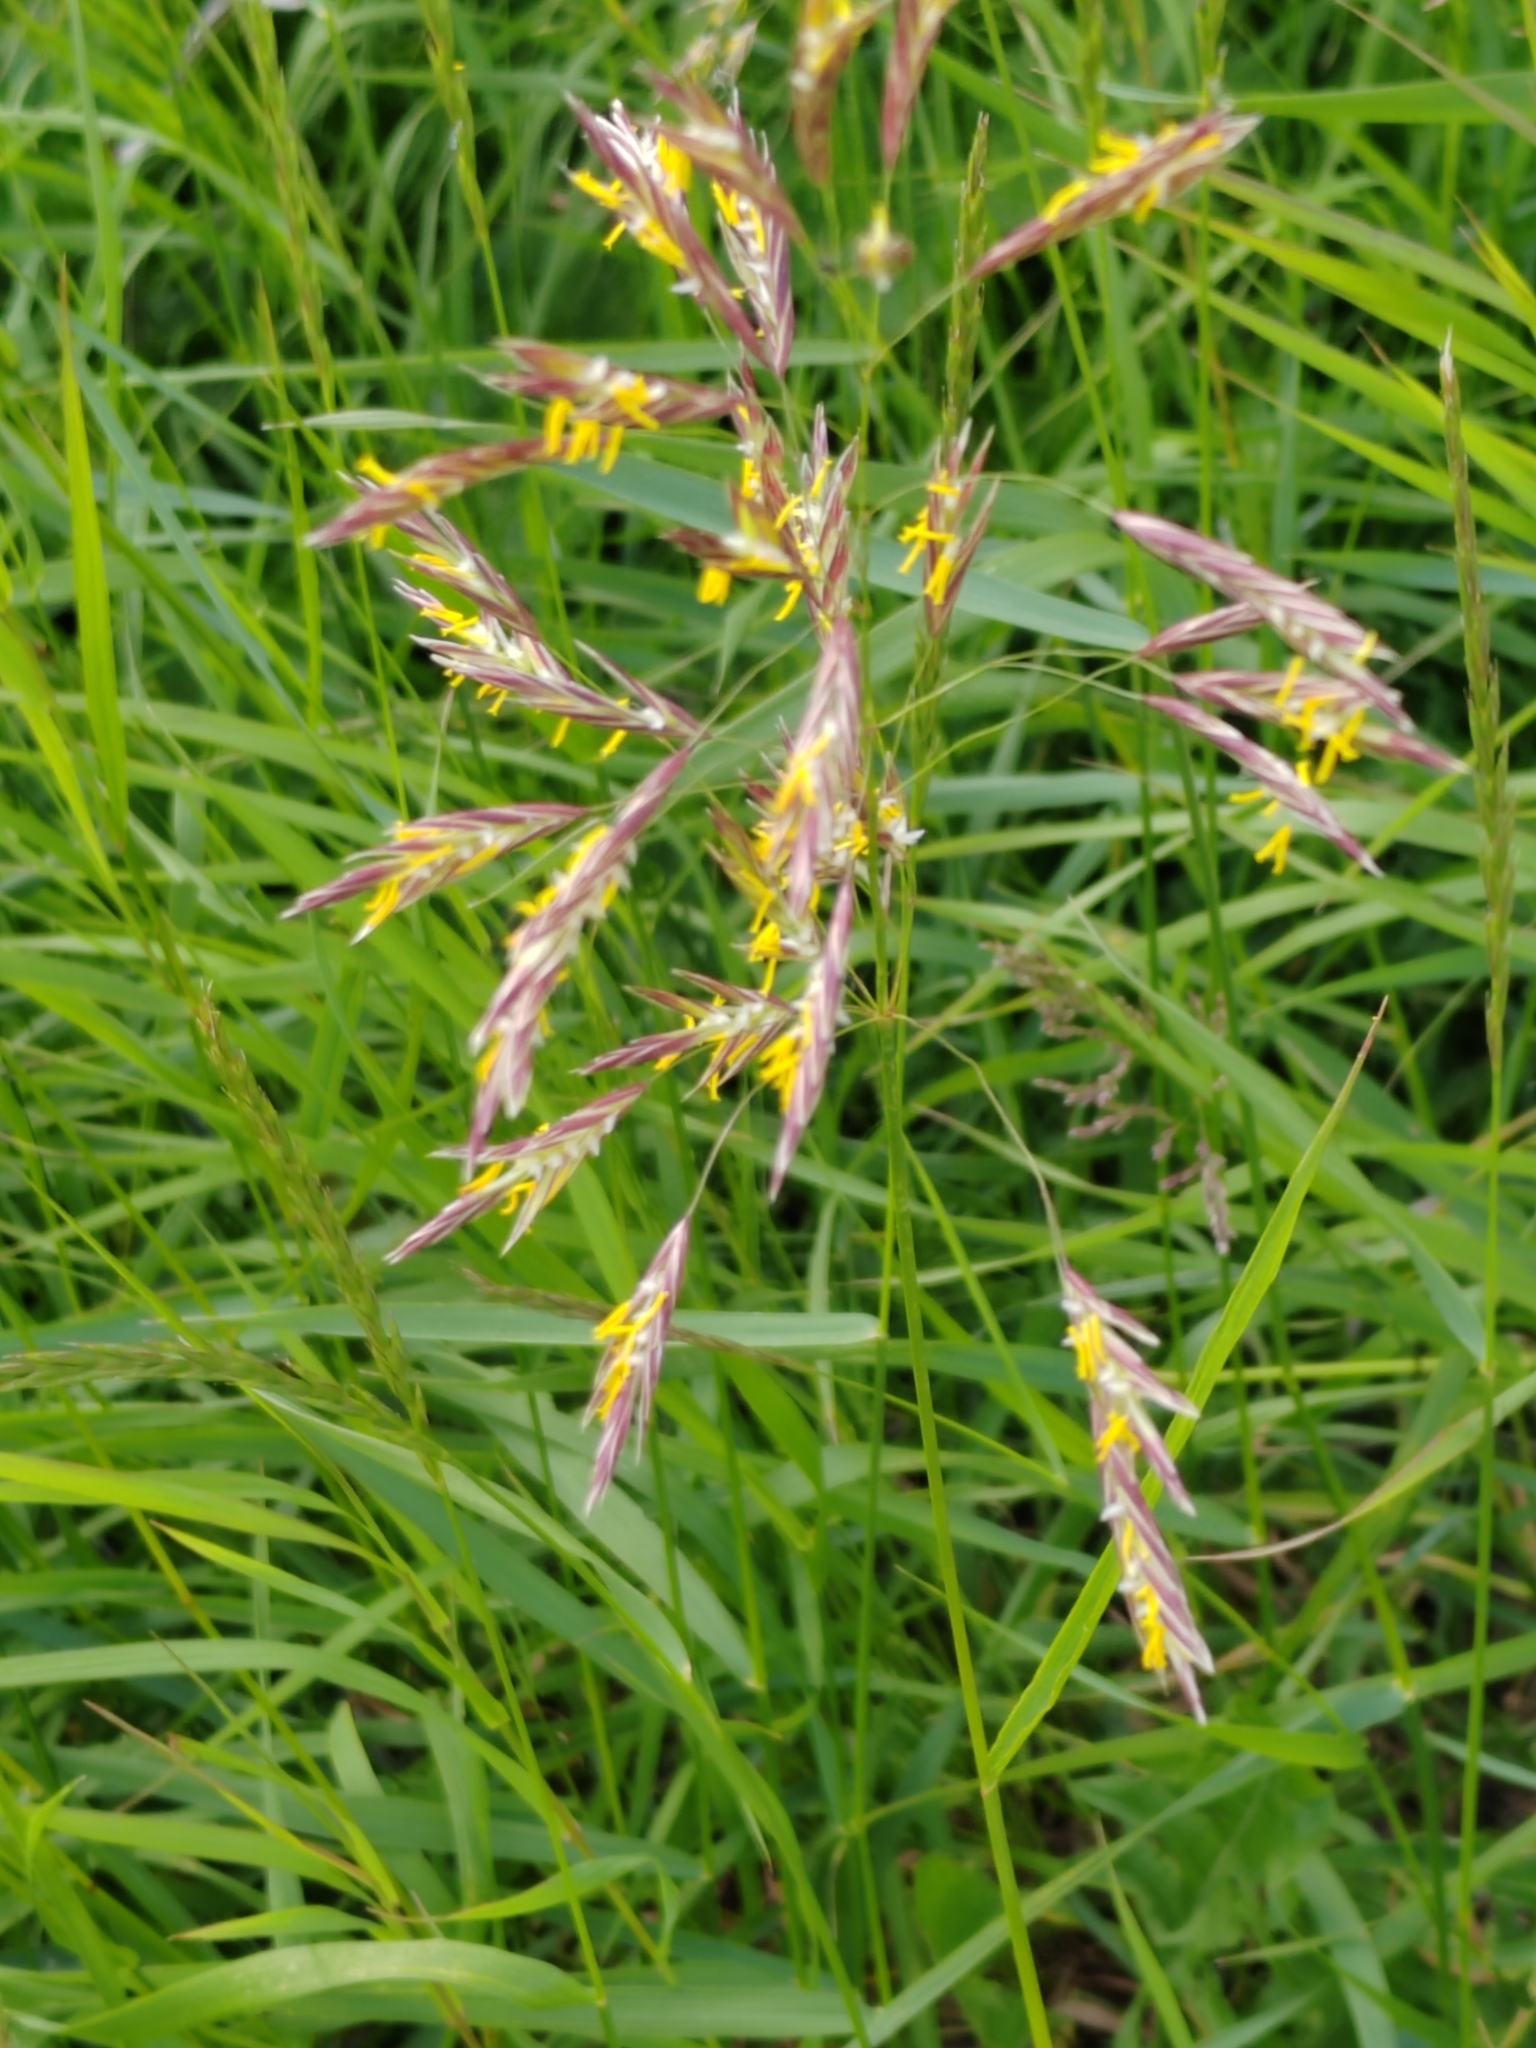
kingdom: Plantae
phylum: Tracheophyta
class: Liliopsida
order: Poales
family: Poaceae
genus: Bromus
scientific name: Bromus inermis
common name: Smooth brome
